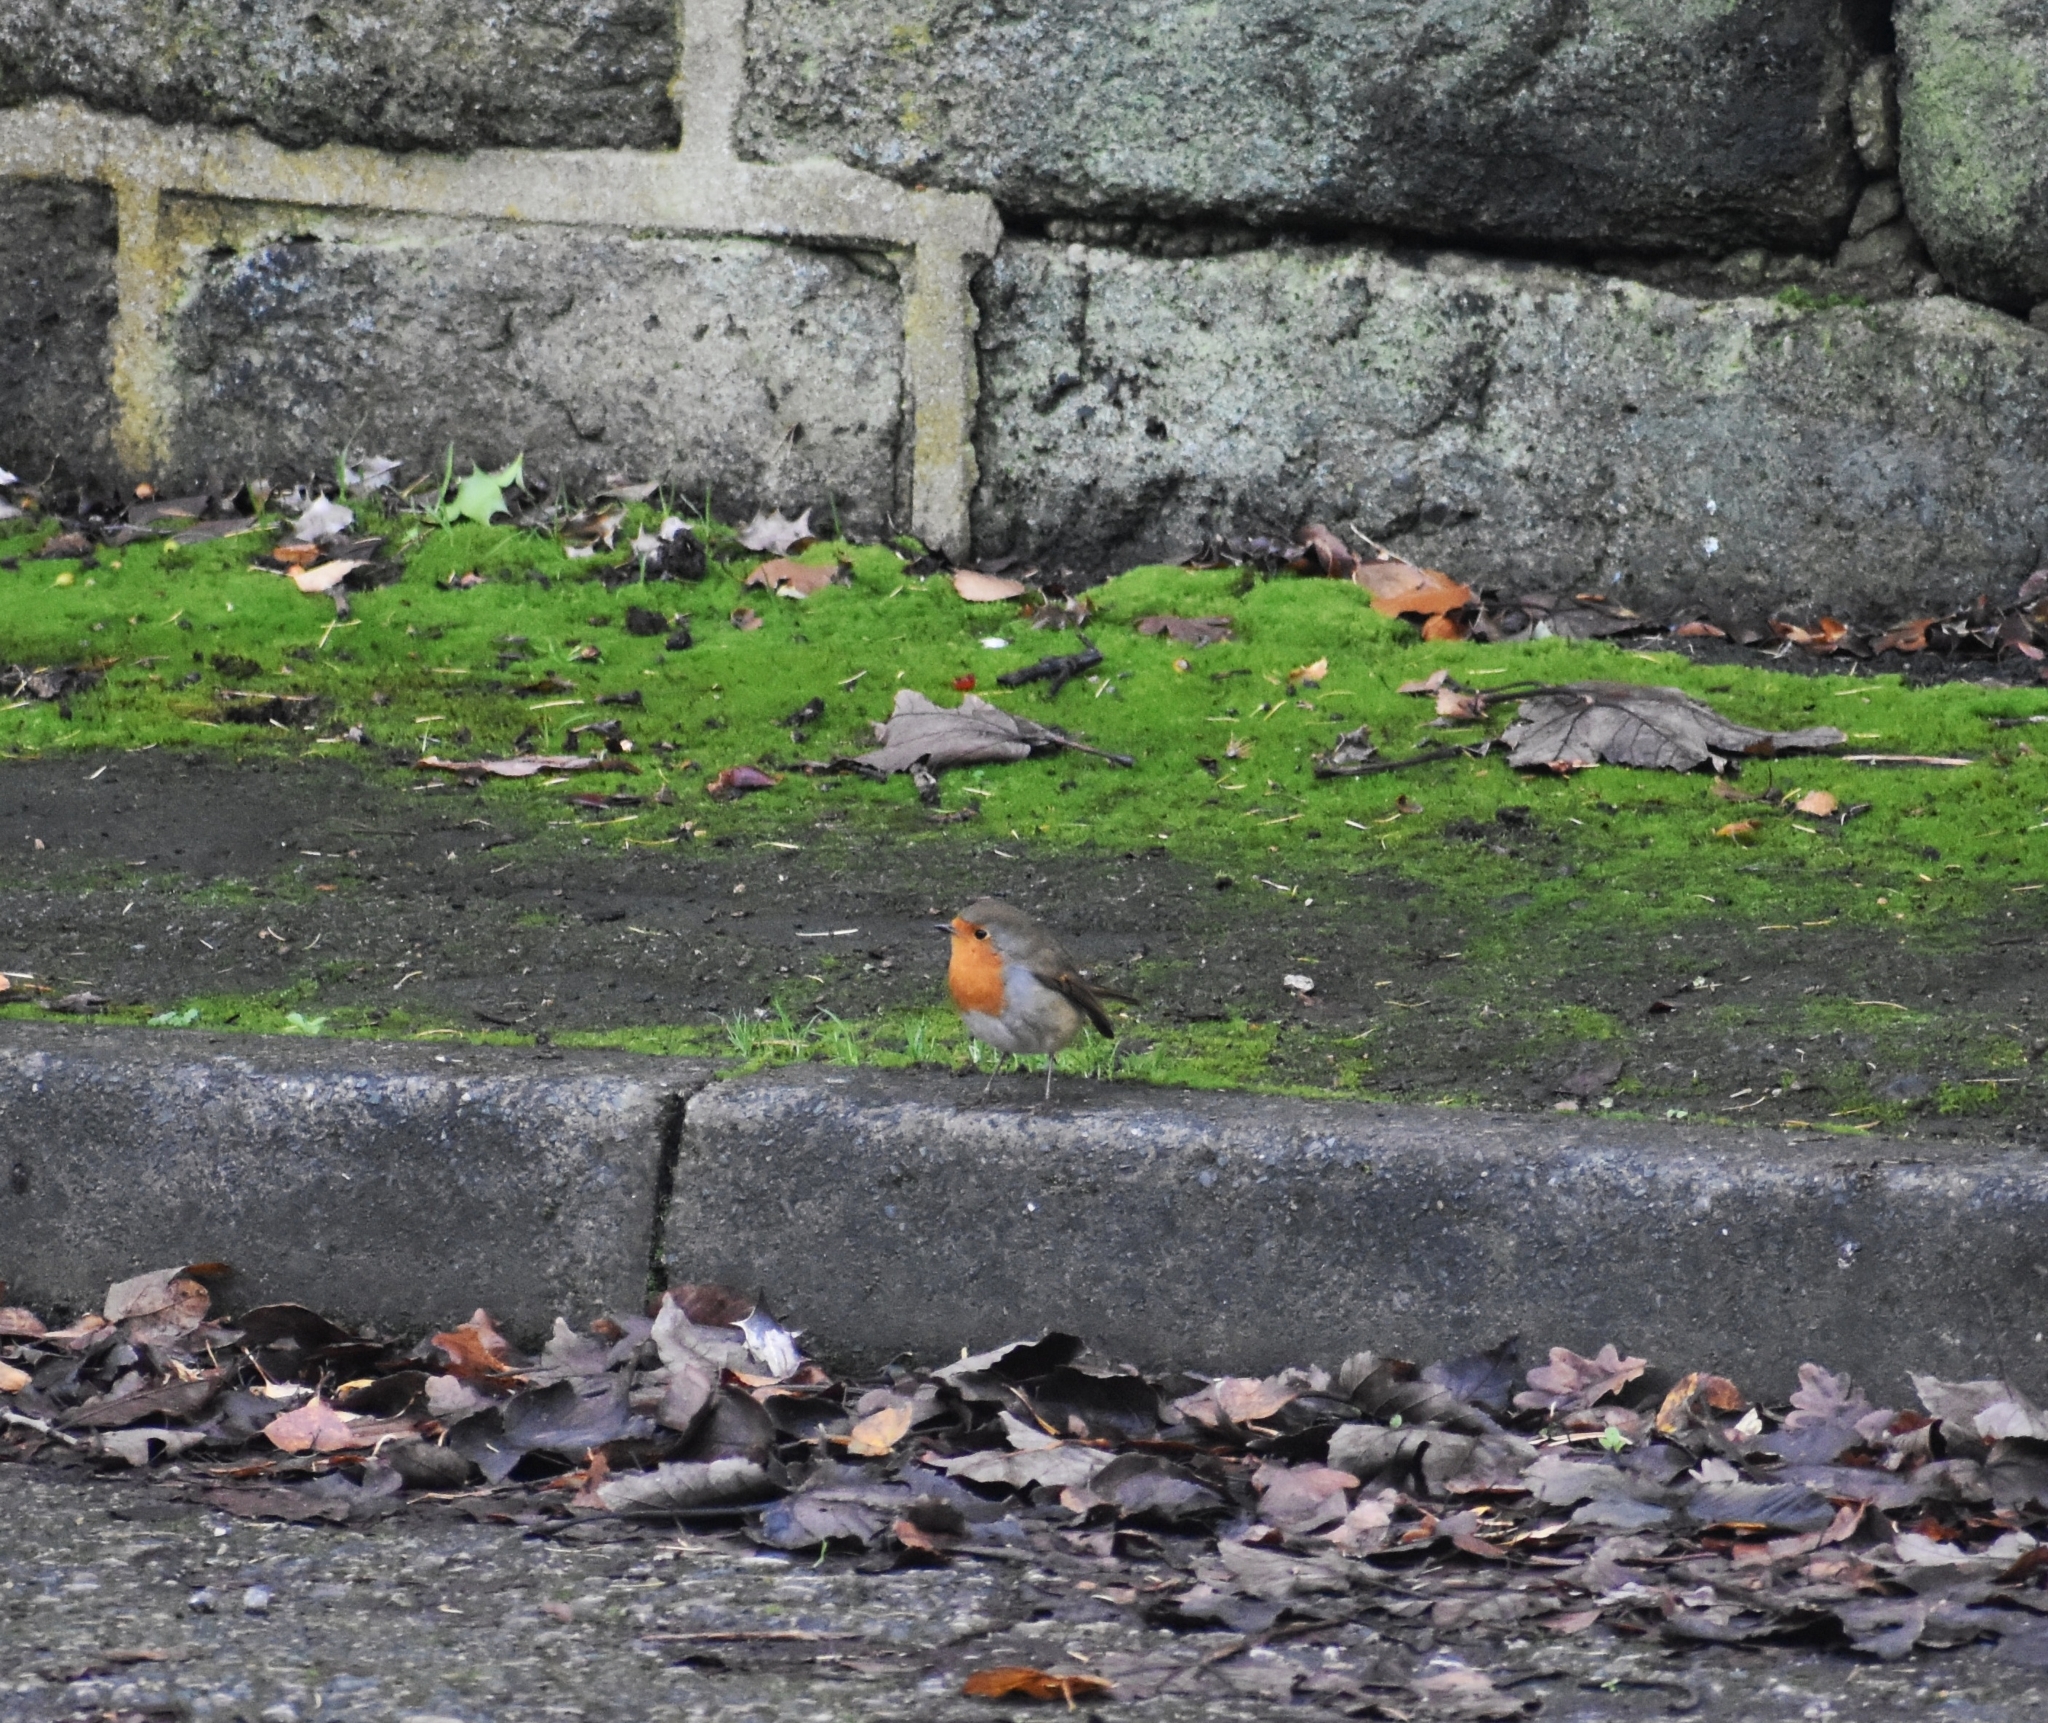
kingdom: Animalia
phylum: Chordata
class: Aves
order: Passeriformes
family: Muscicapidae
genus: Erithacus
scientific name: Erithacus rubecula
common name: European robin
